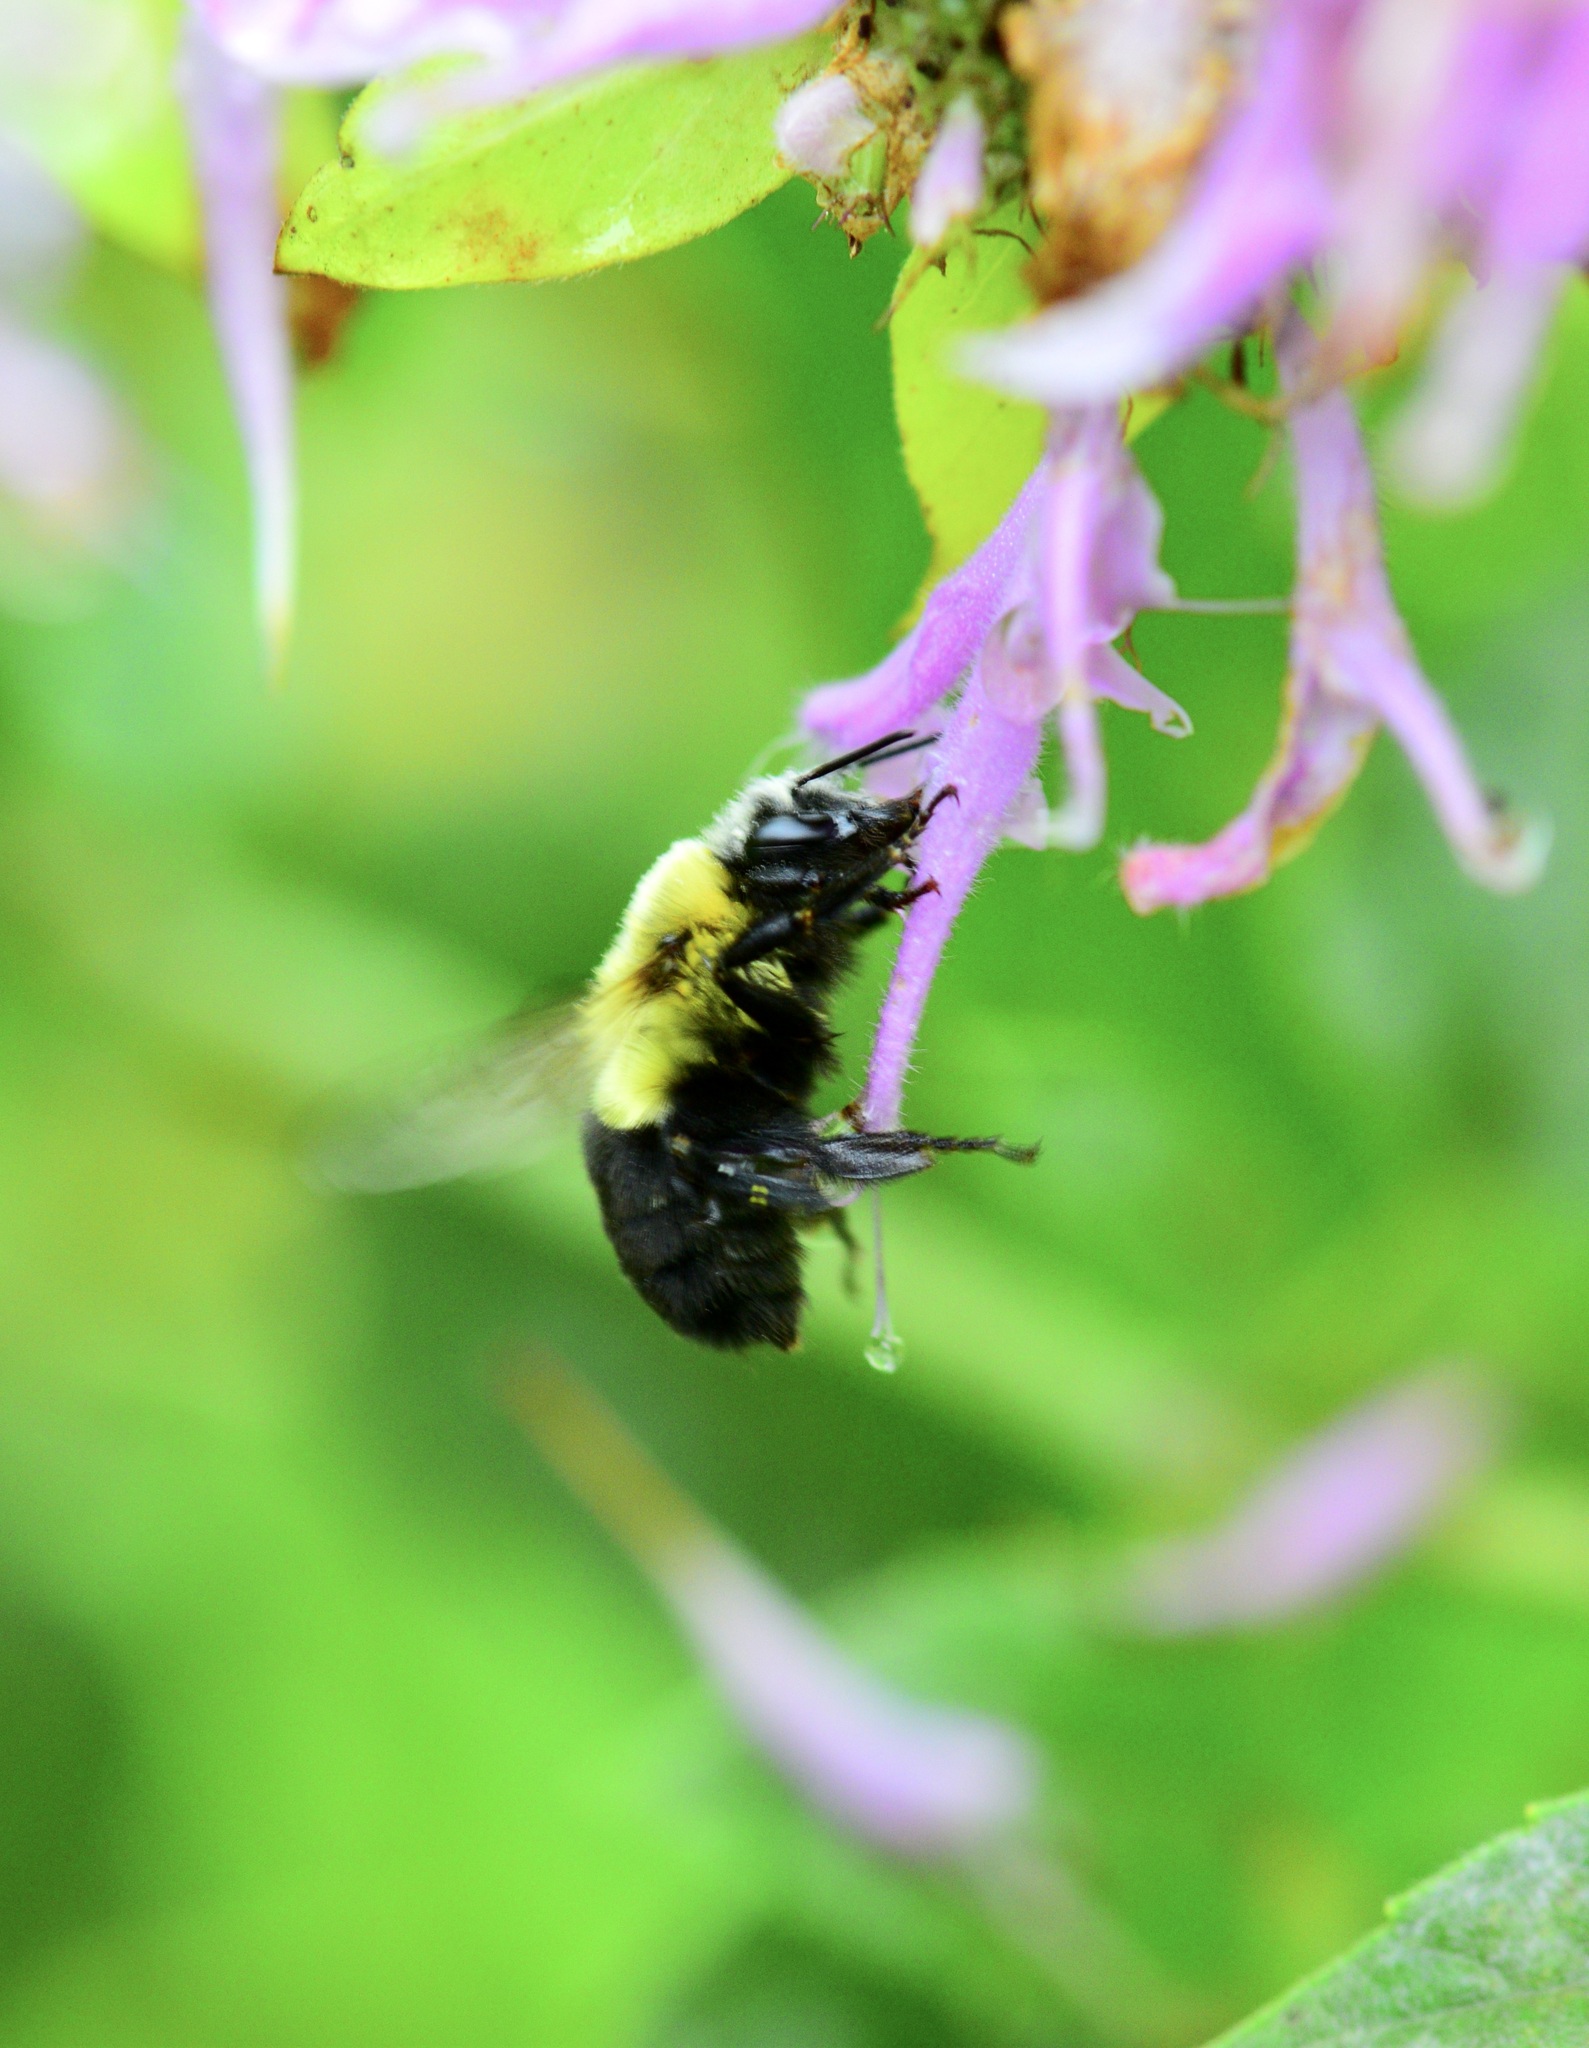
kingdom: Animalia
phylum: Arthropoda
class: Insecta
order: Hymenoptera
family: Apidae
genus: Bombus
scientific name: Bombus impatiens
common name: Common eastern bumble bee
